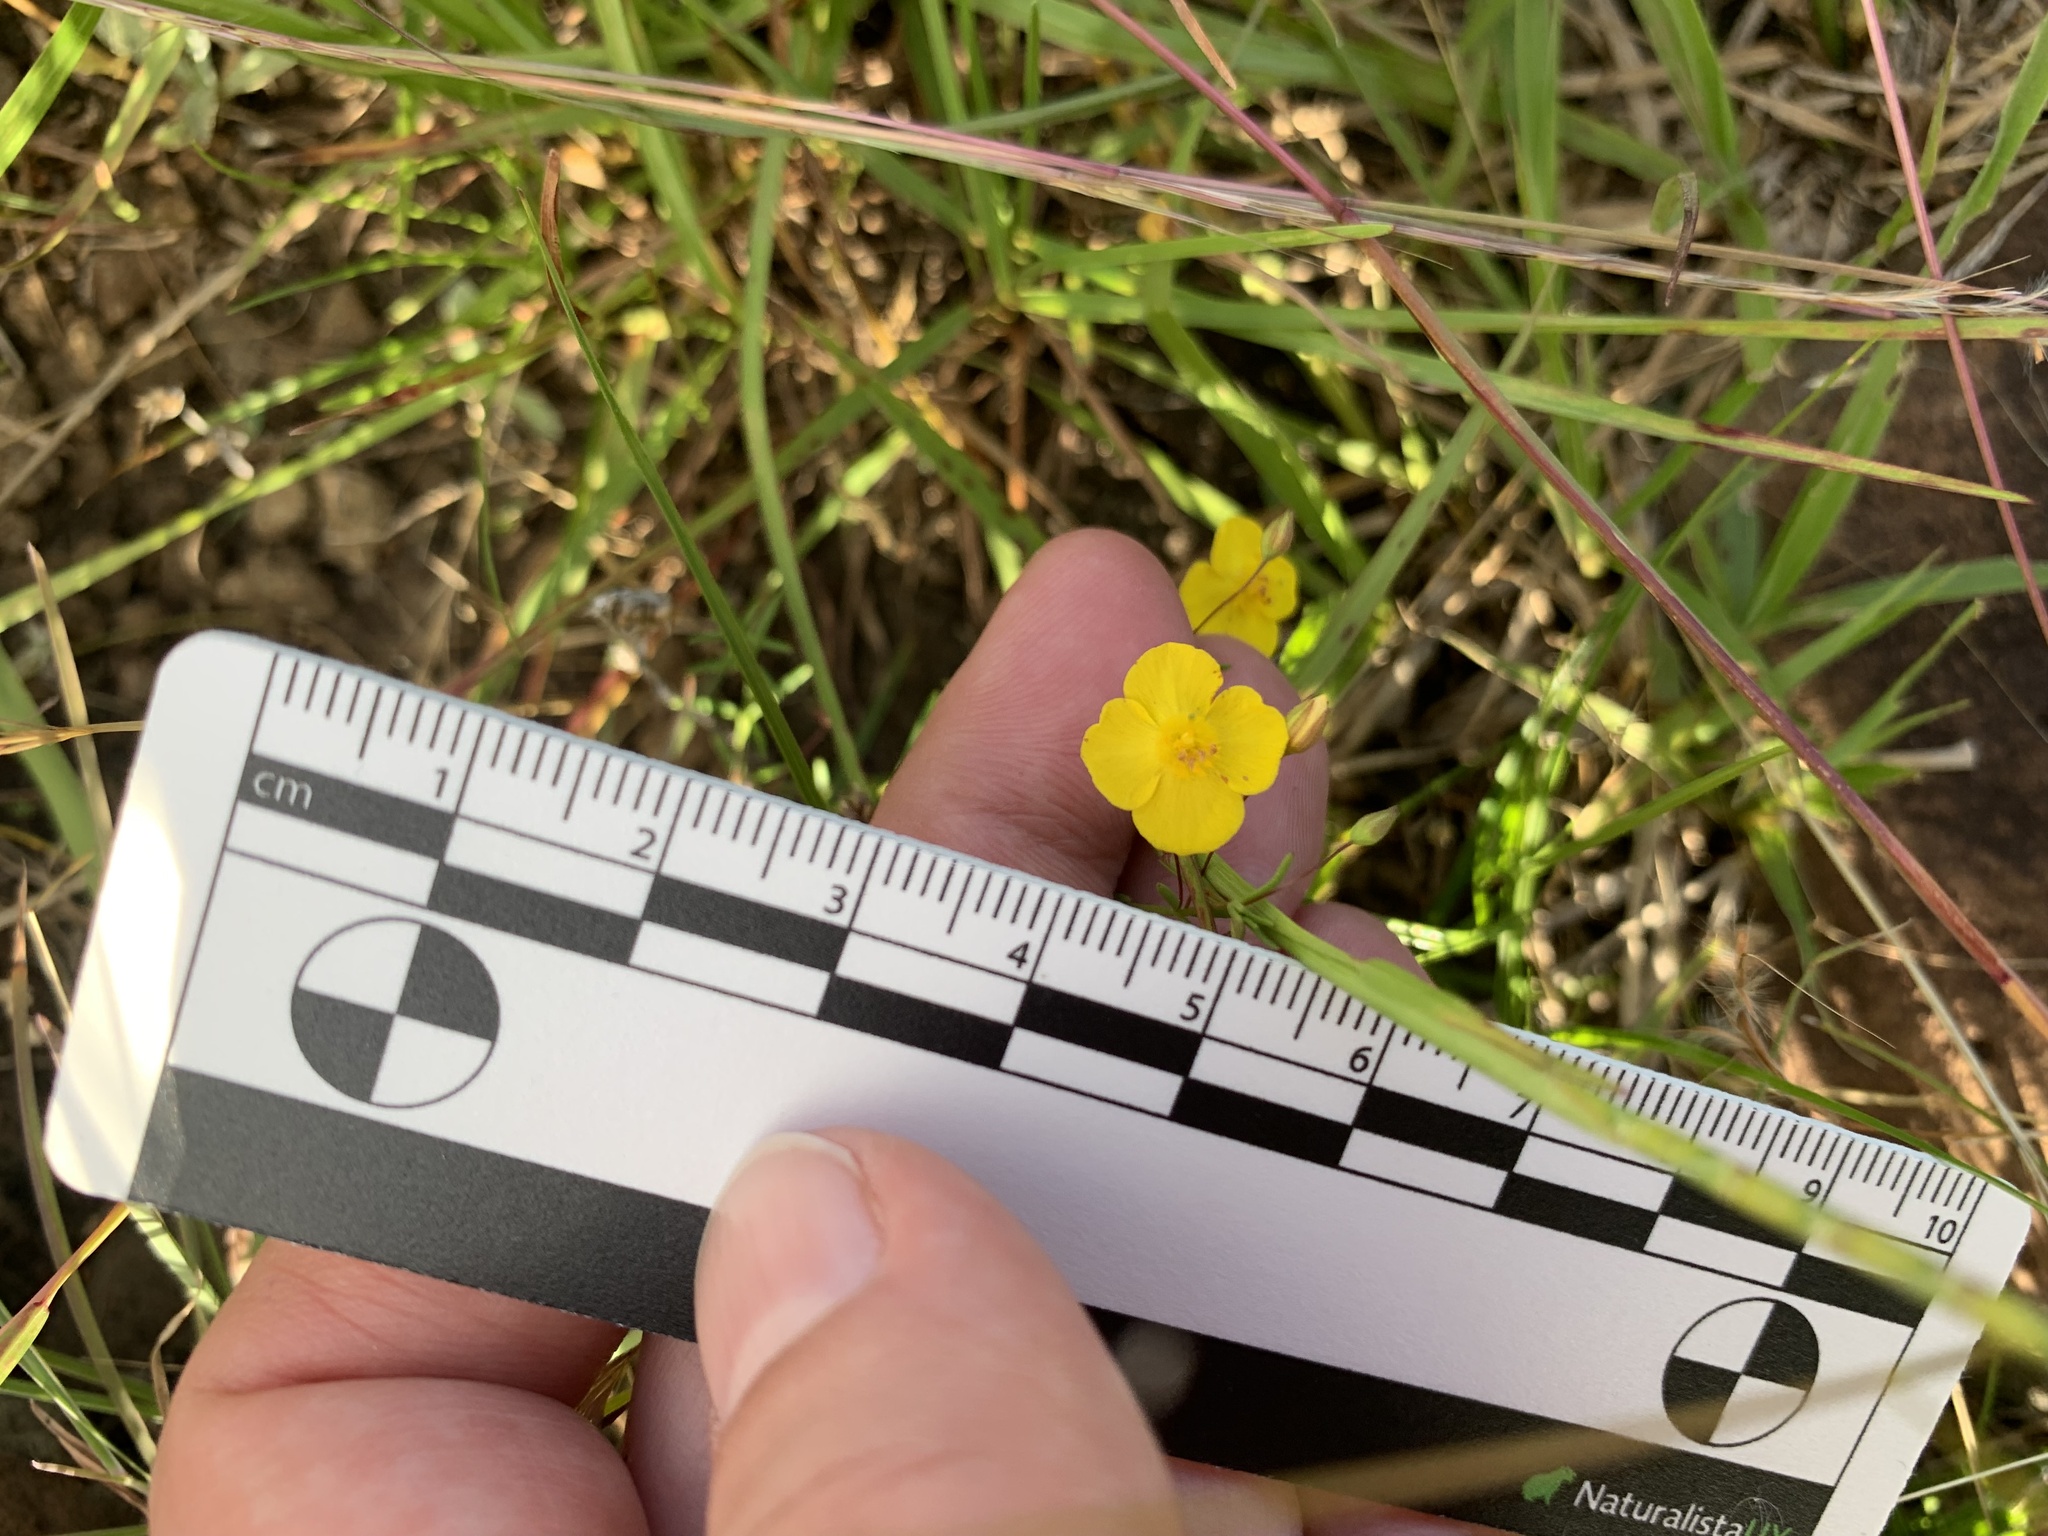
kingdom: Plantae
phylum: Tracheophyta
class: Magnoliopsida
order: Lamiales
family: Plantaginaceae
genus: Scoparia
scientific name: Scoparia montevidensis
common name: Broomwort
